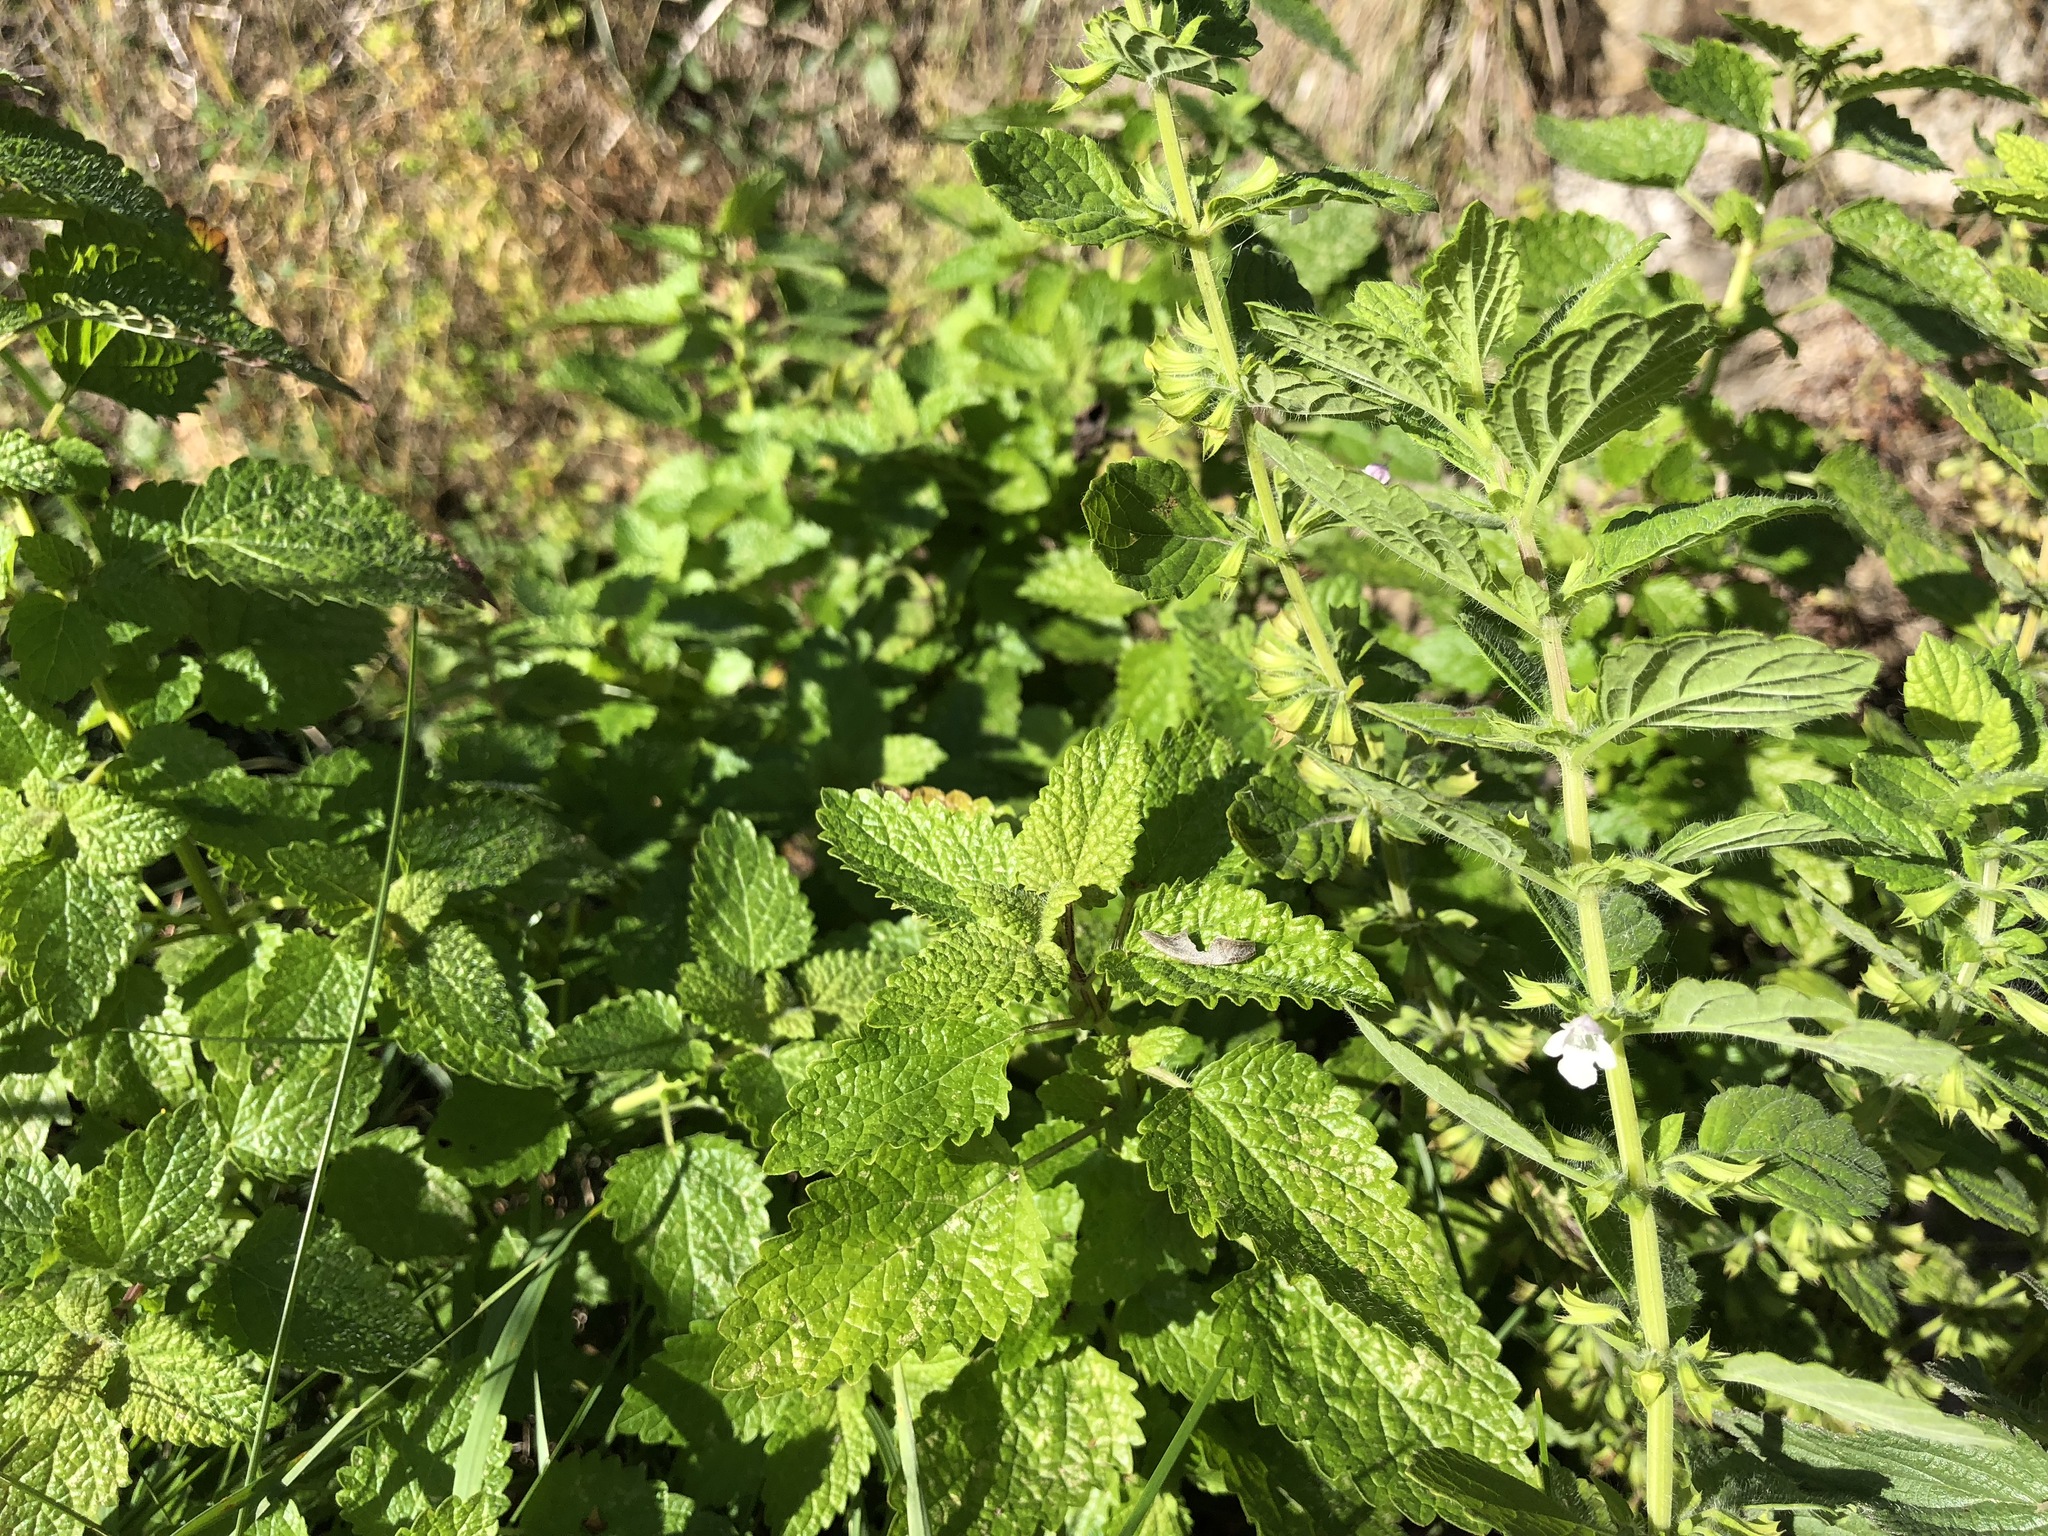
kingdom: Plantae
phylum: Tracheophyta
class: Magnoliopsida
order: Lamiales
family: Lamiaceae
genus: Melissa
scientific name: Melissa officinalis
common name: Balm
